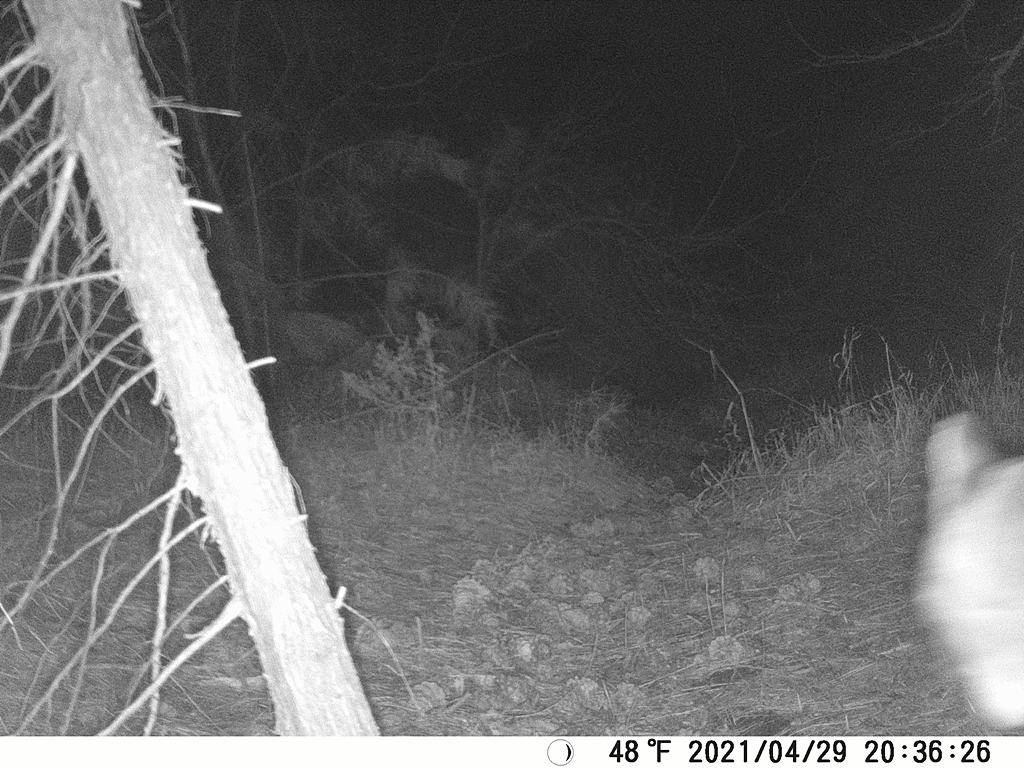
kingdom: Animalia
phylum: Chordata
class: Mammalia
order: Carnivora
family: Felidae
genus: Puma
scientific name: Puma concolor
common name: Puma
